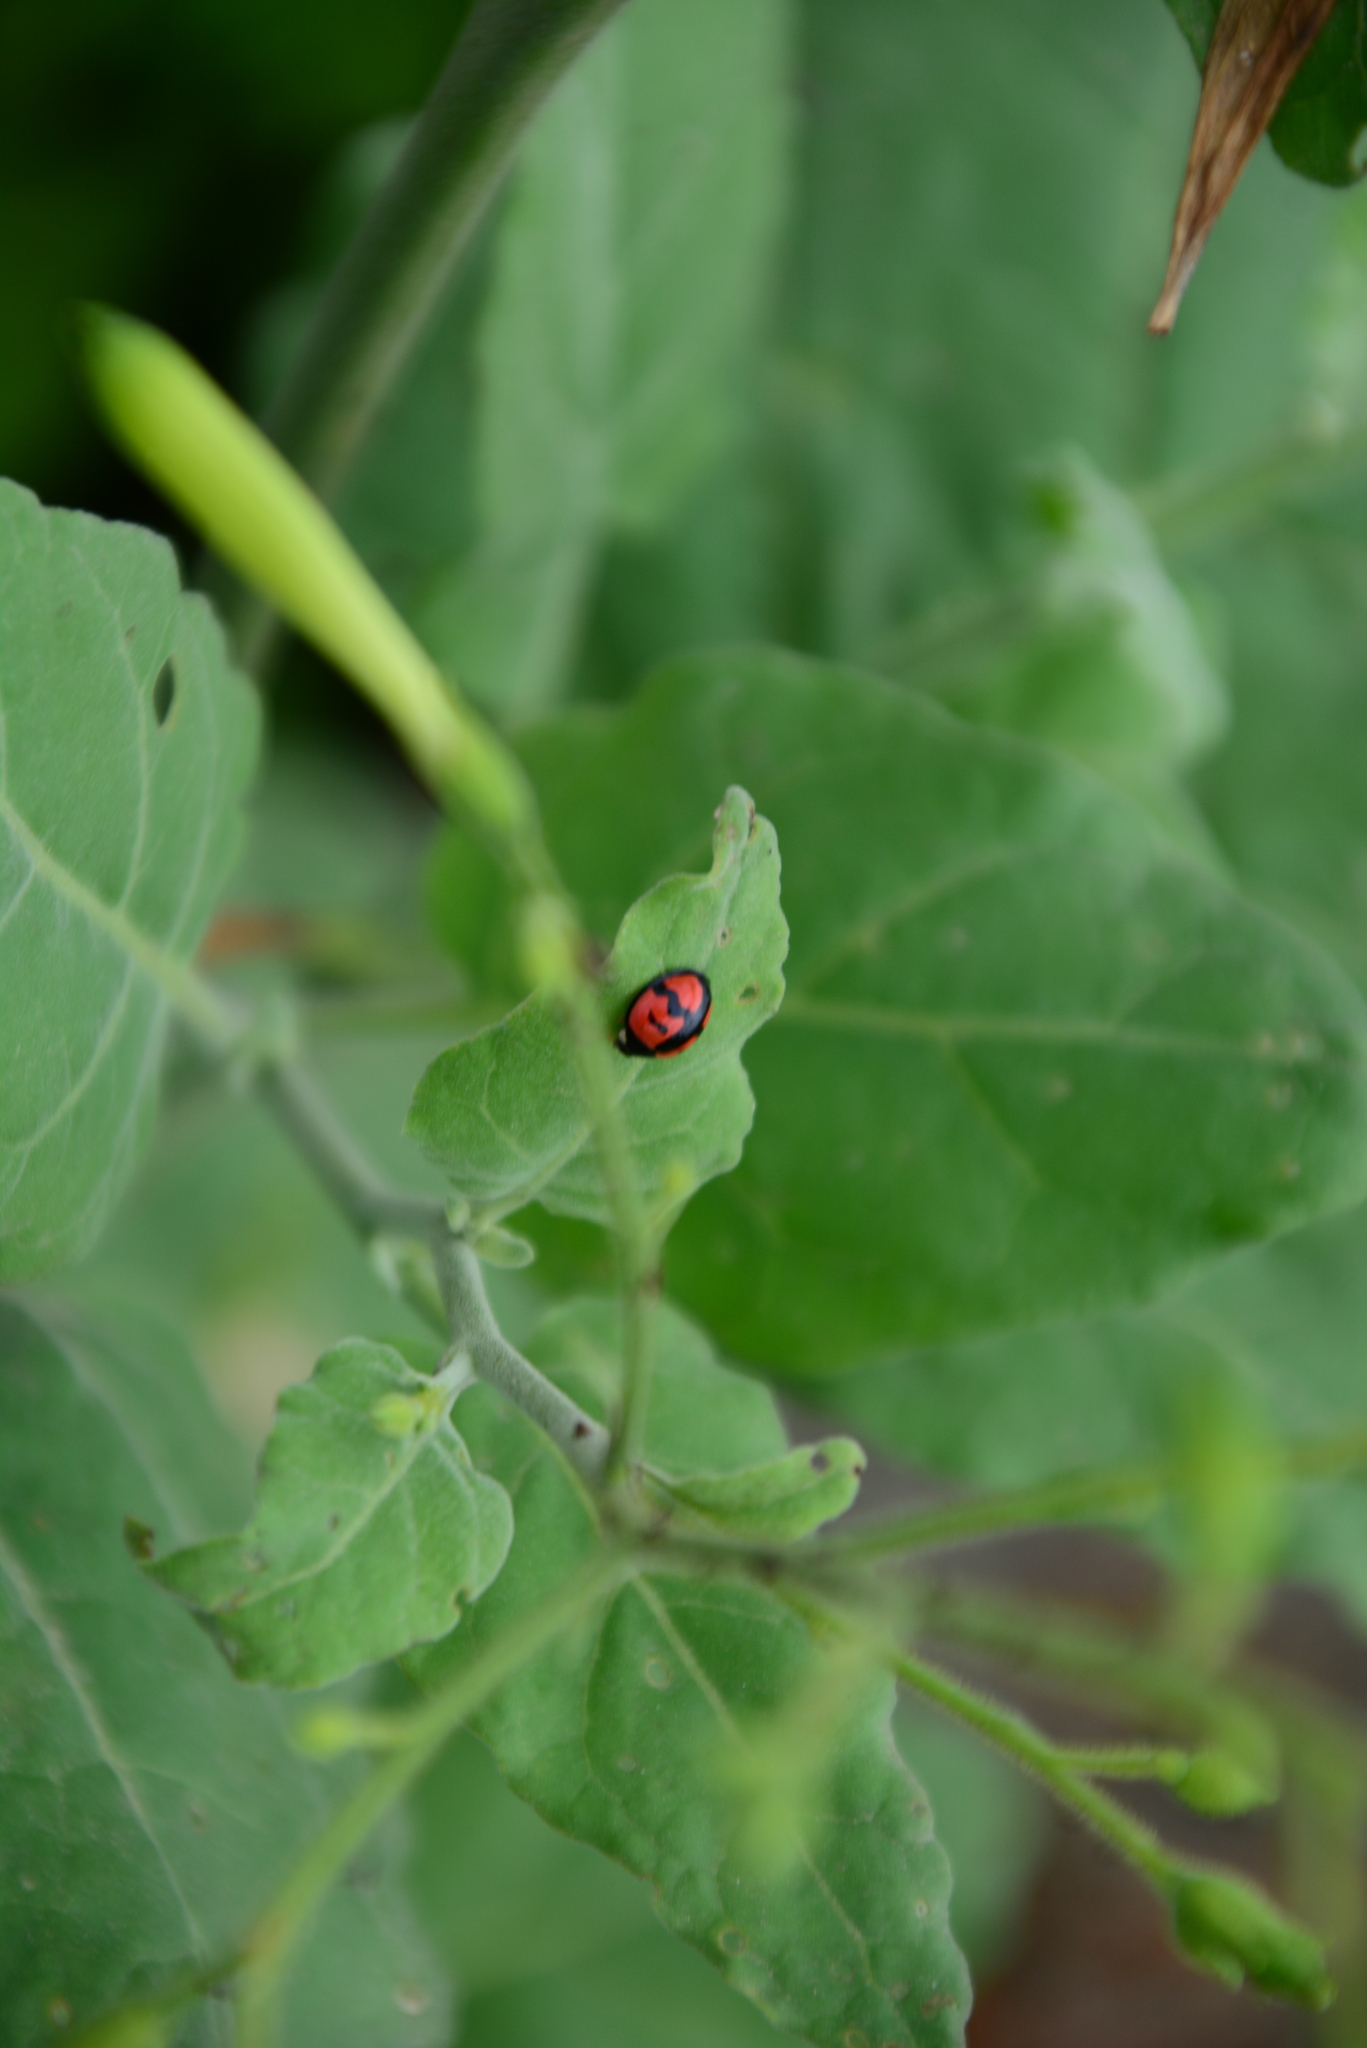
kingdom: Animalia
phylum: Arthropoda
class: Insecta
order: Coleoptera
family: Coccinellidae
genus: Cheilomenes
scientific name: Cheilomenes sexmaculata
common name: Ladybird beetle
